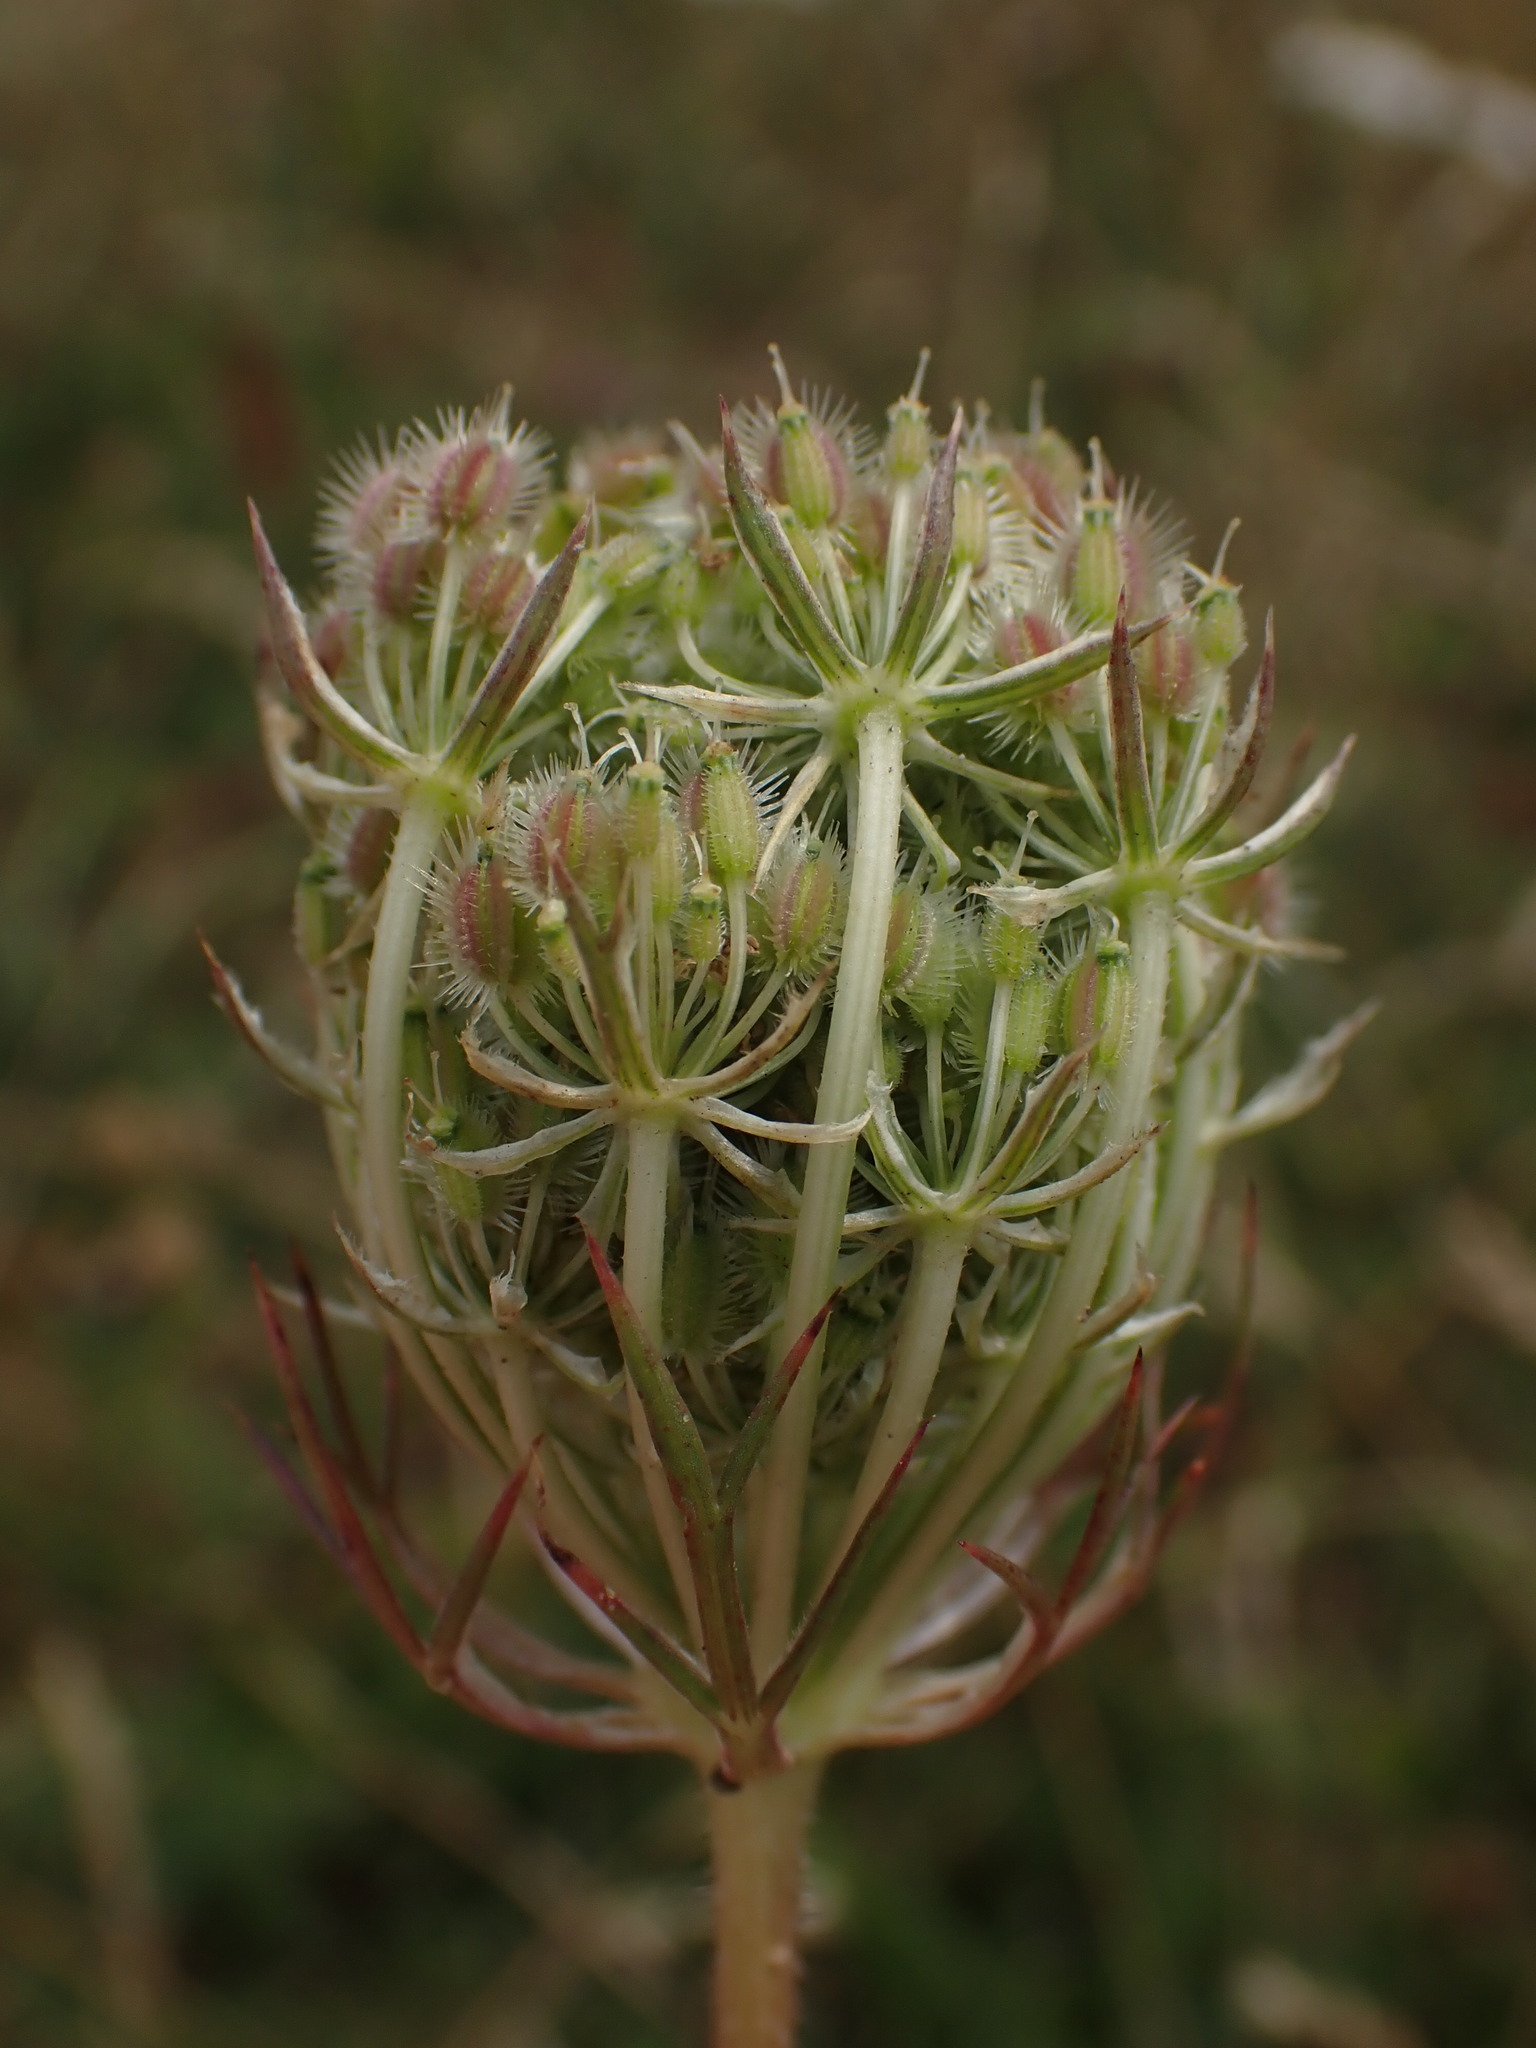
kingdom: Plantae
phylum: Tracheophyta
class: Magnoliopsida
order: Apiales
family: Apiaceae
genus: Daucus
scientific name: Daucus carota
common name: Wild carrot
